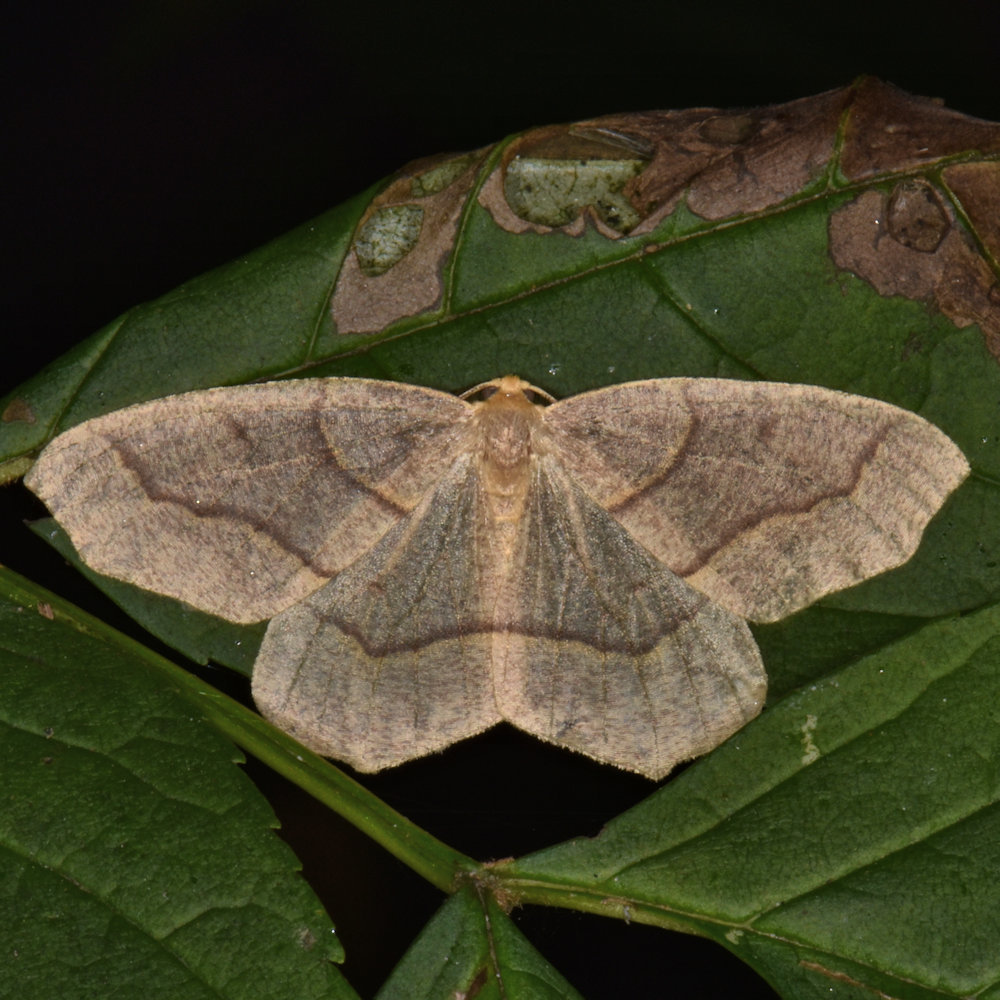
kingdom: Animalia
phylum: Arthropoda
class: Insecta
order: Lepidoptera
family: Geometridae
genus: Lambdina
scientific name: Lambdina fiscellaria
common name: Hemlock looper
